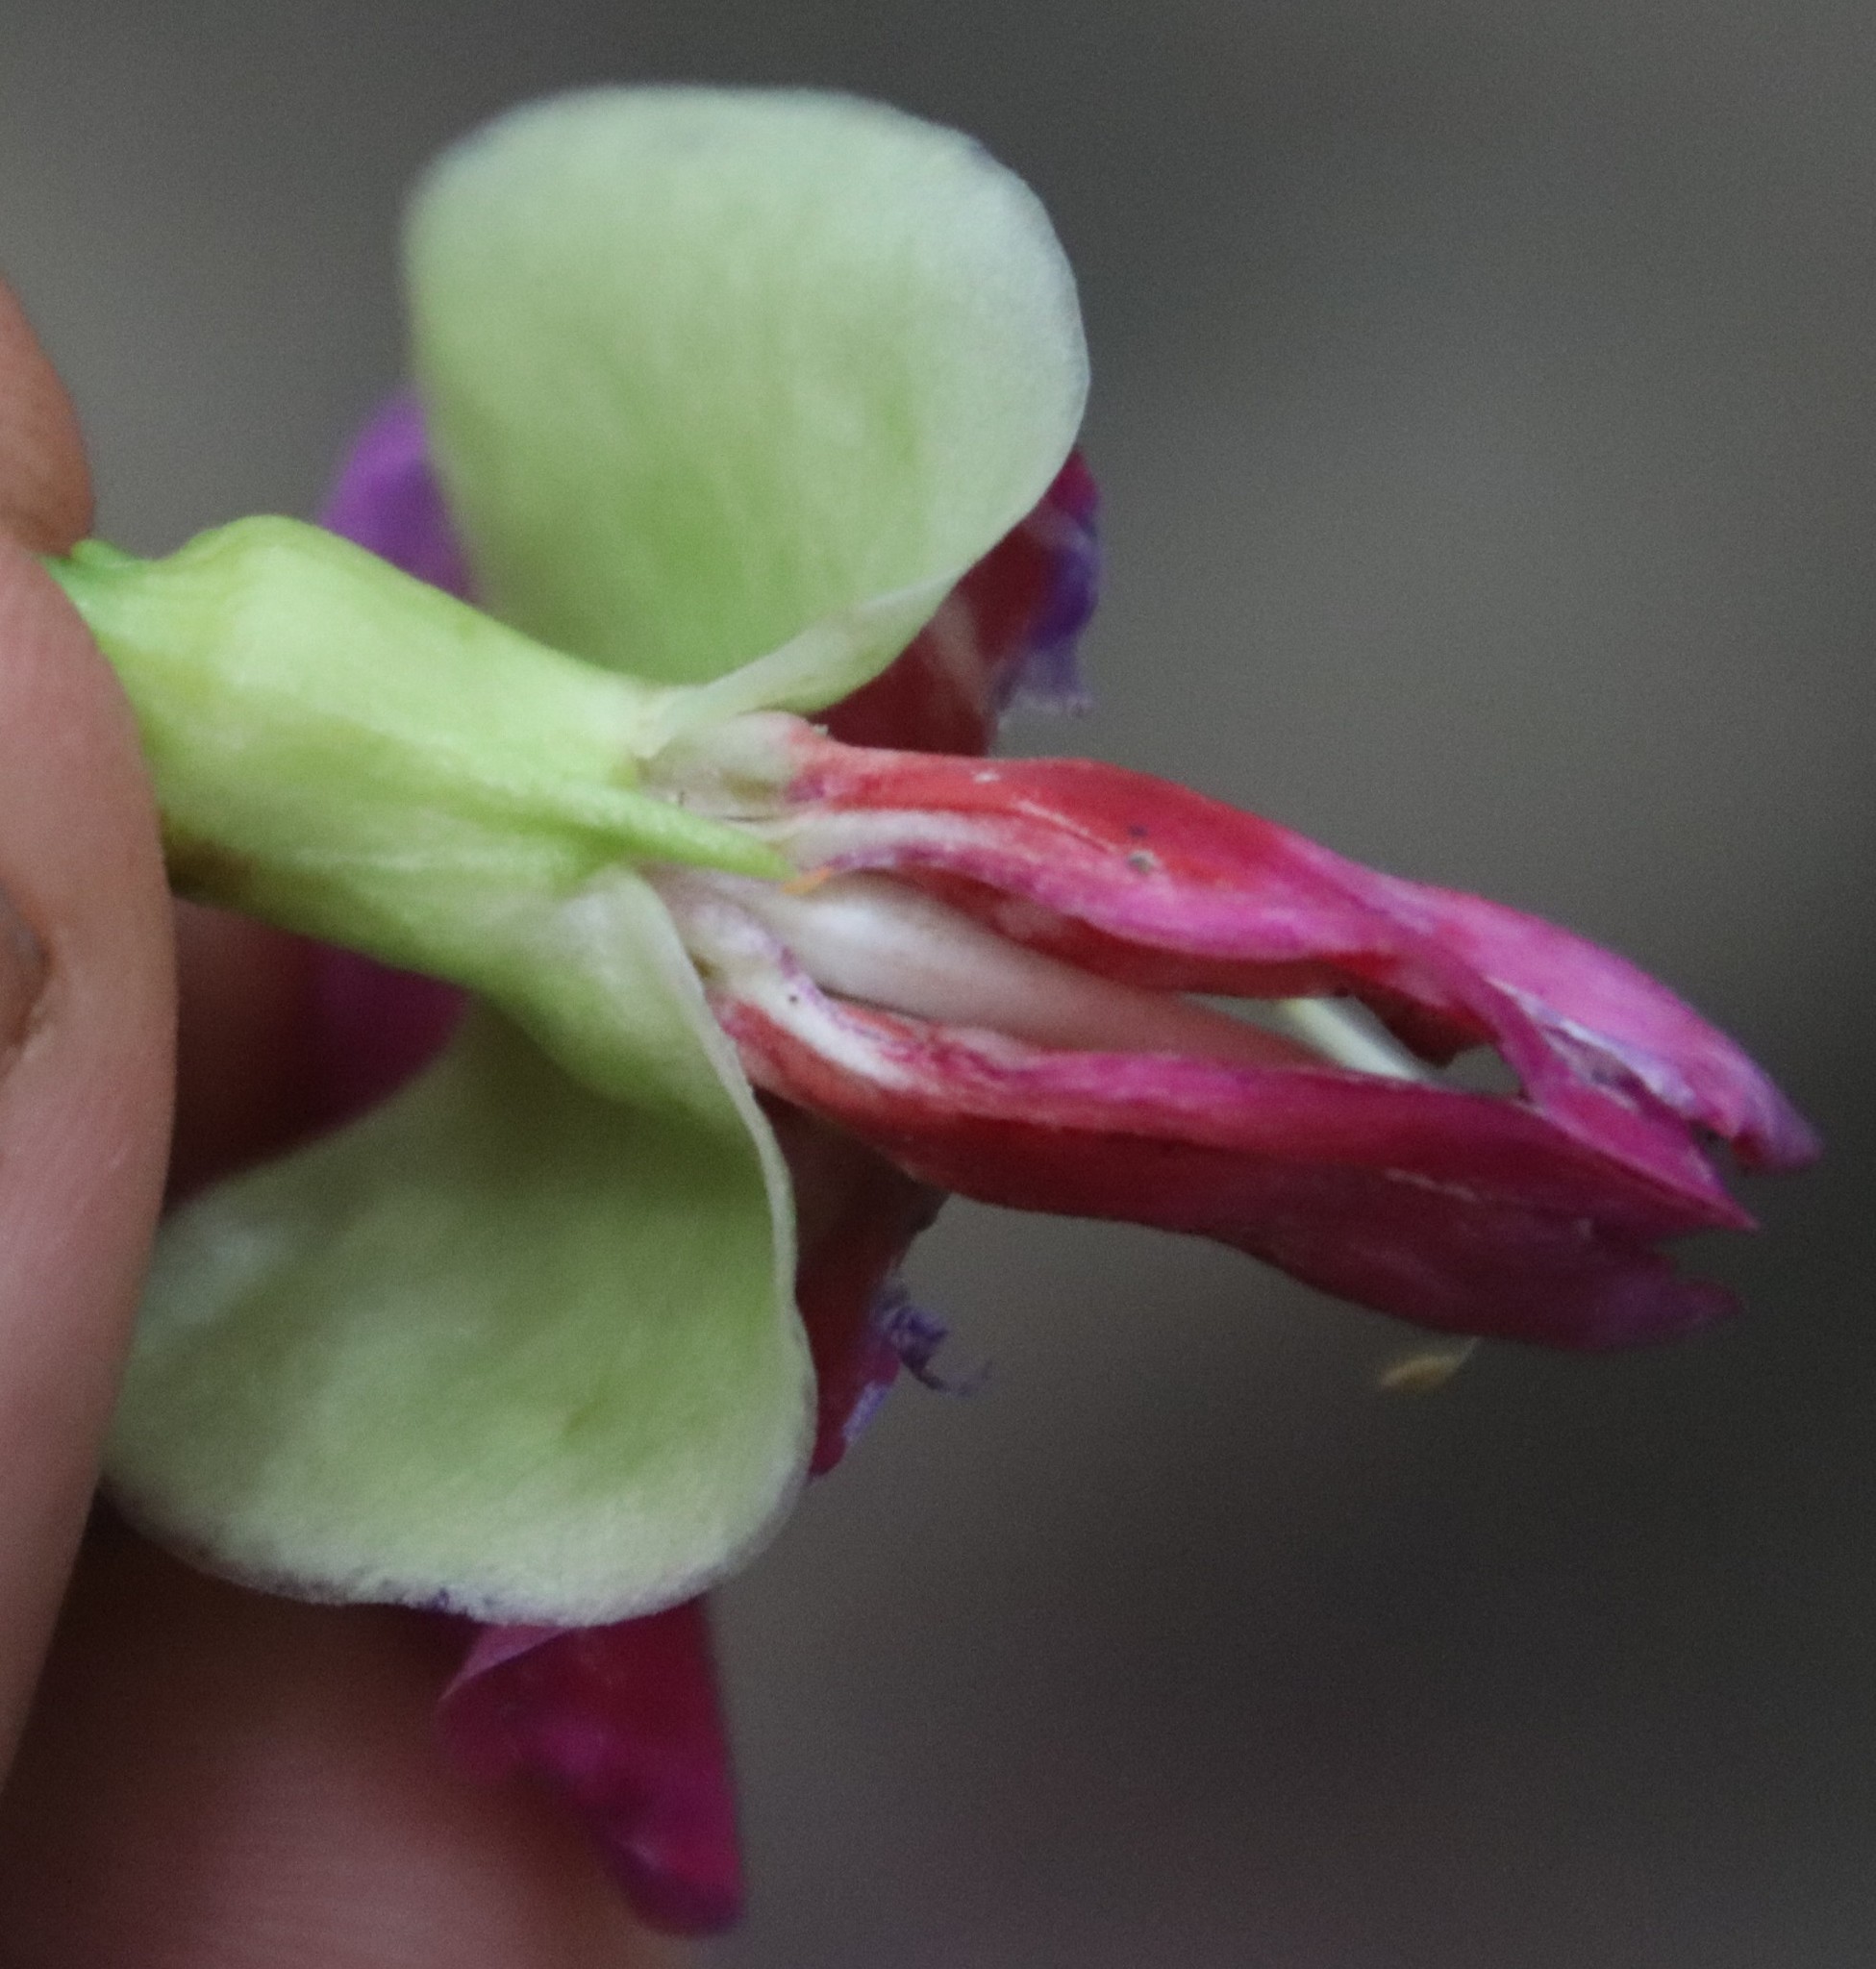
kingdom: Plantae
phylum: Tracheophyta
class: Magnoliopsida
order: Fabales
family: Fabaceae
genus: Canavalia
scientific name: Canavalia bonariensis
